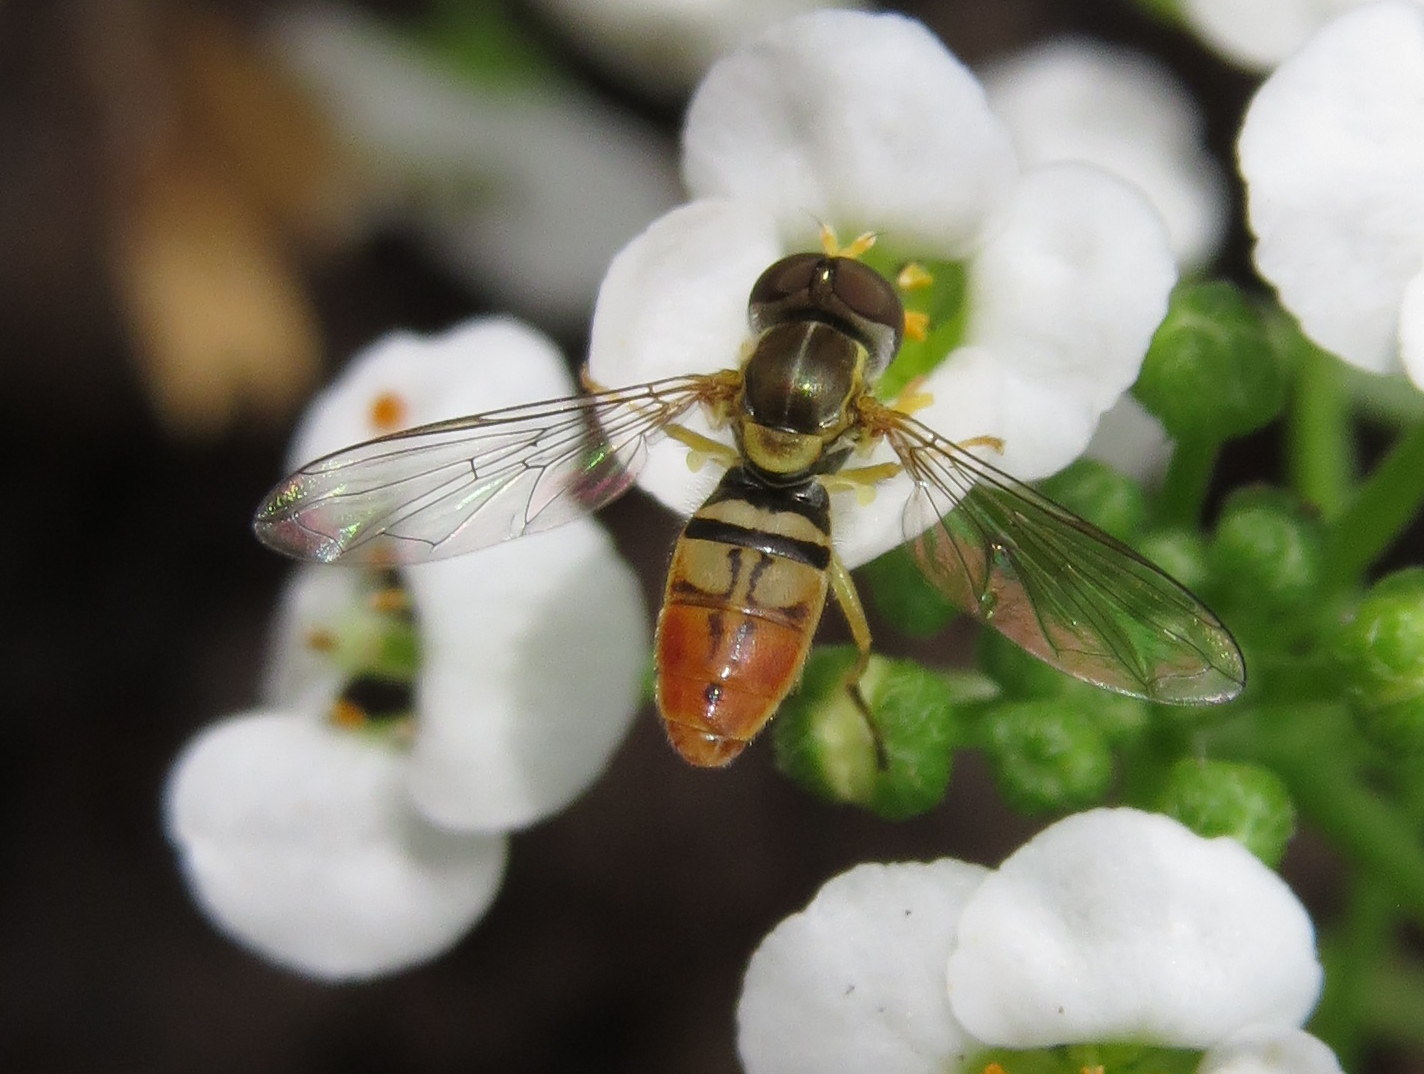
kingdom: Animalia
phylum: Arthropoda
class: Insecta
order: Diptera
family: Syrphidae
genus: Toxomerus
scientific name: Toxomerus marginatus
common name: Syrphid fly
